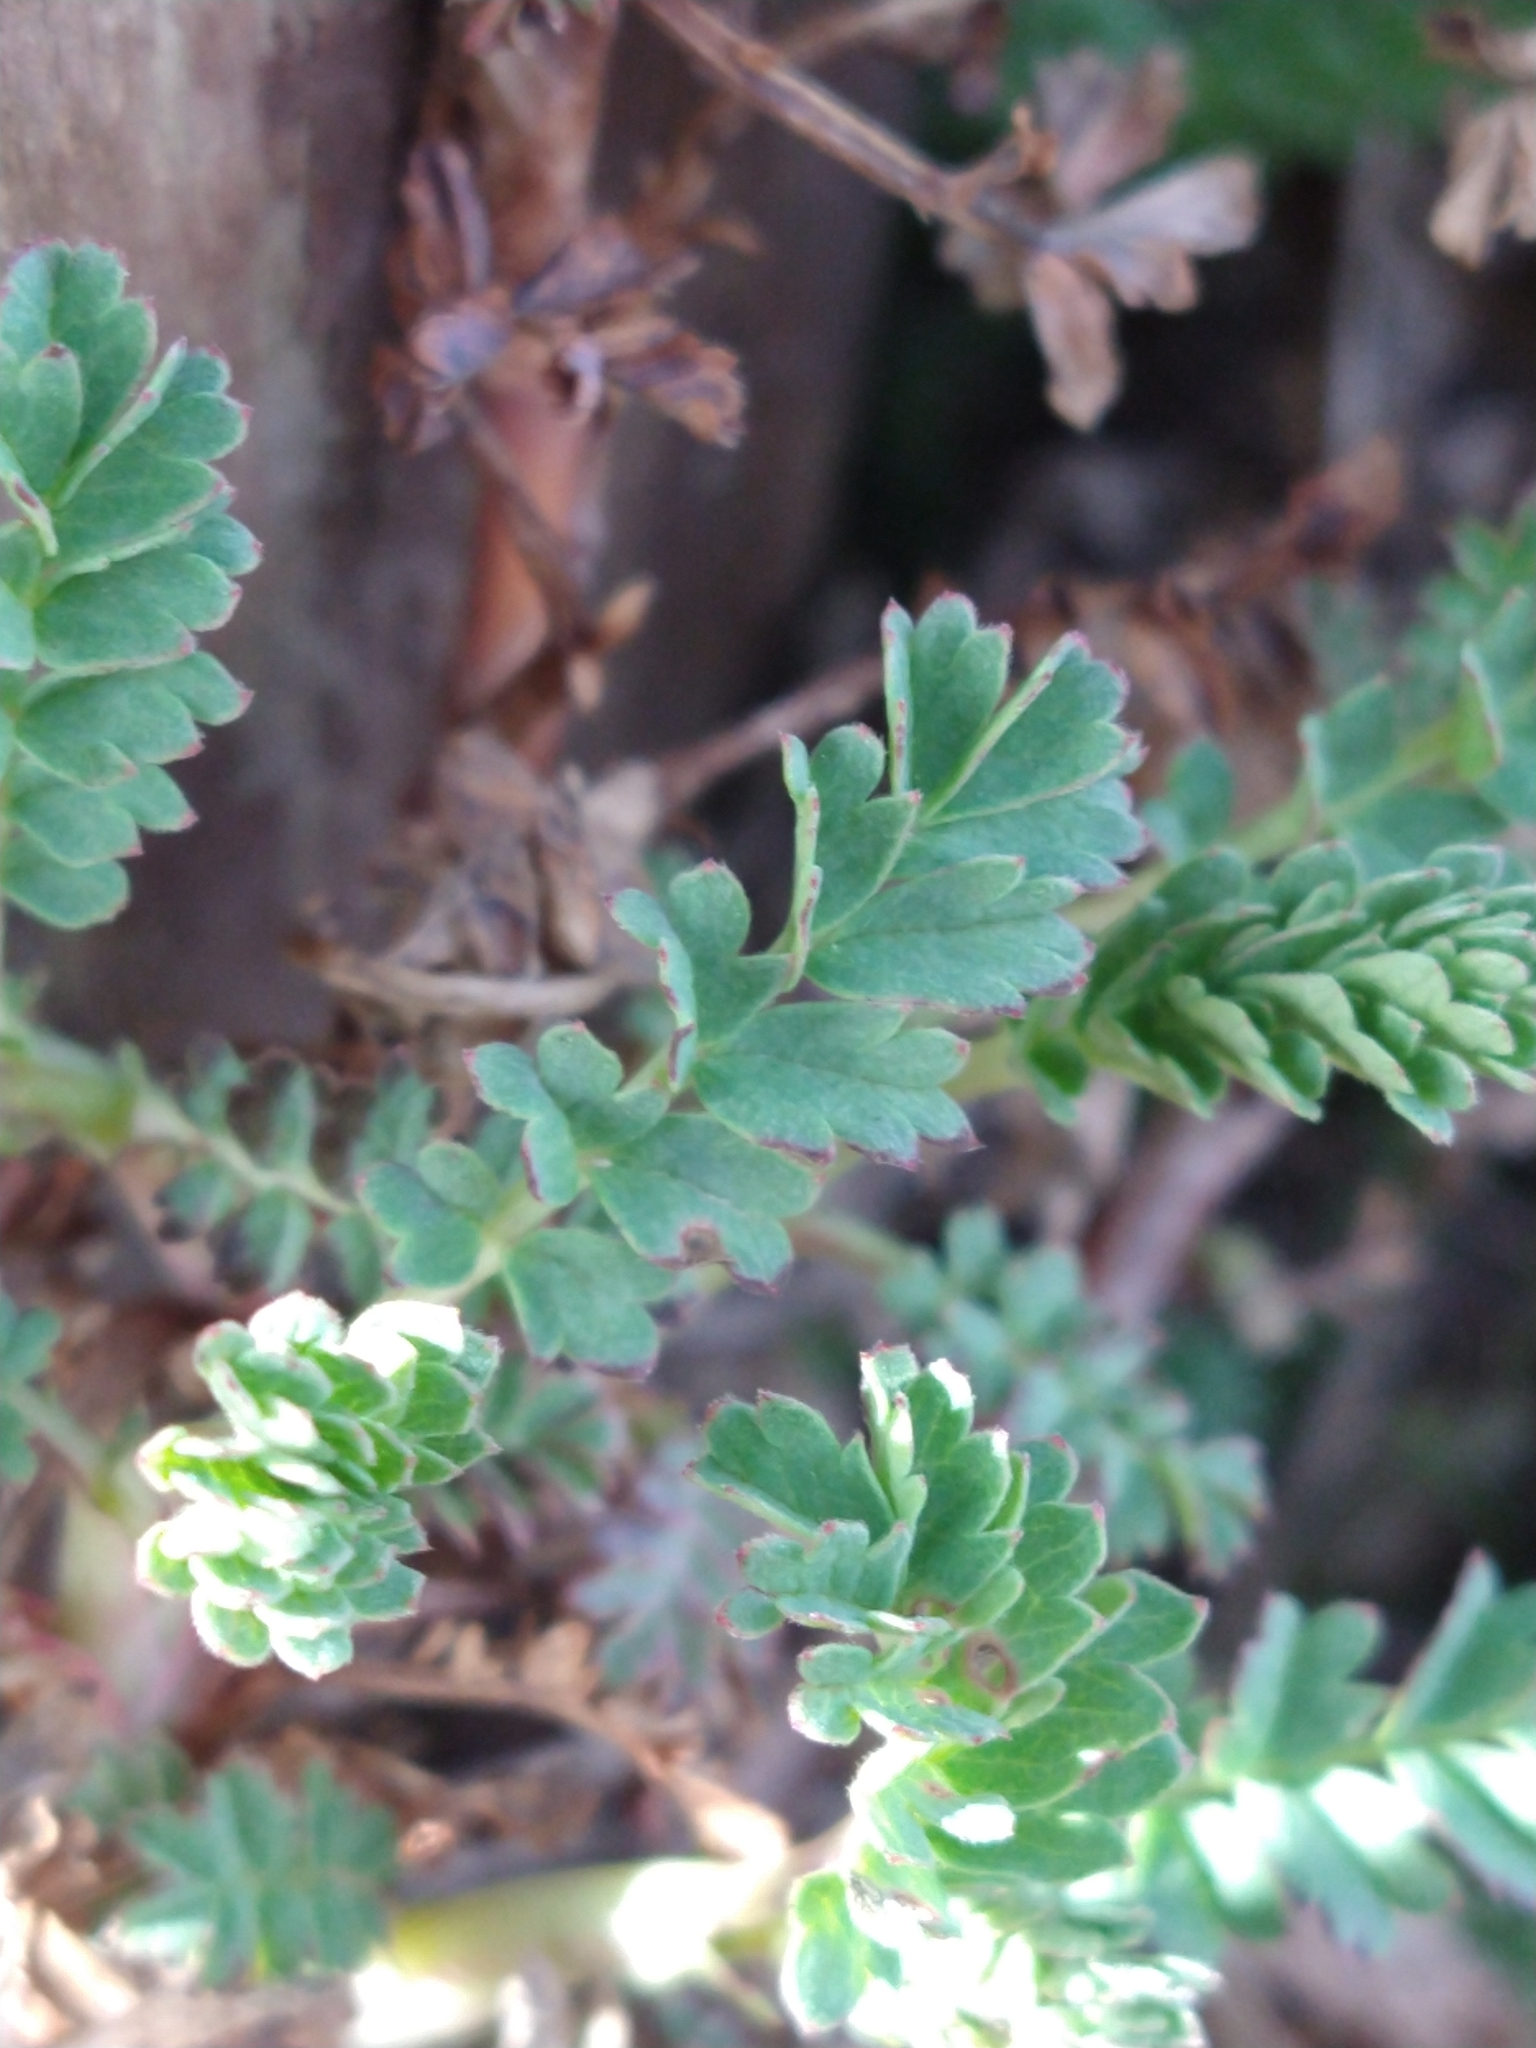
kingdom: Plantae
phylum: Tracheophyta
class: Magnoliopsida
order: Rosales
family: Rosaceae
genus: Acaena
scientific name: Acaena magellanica
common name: New zealand burr
